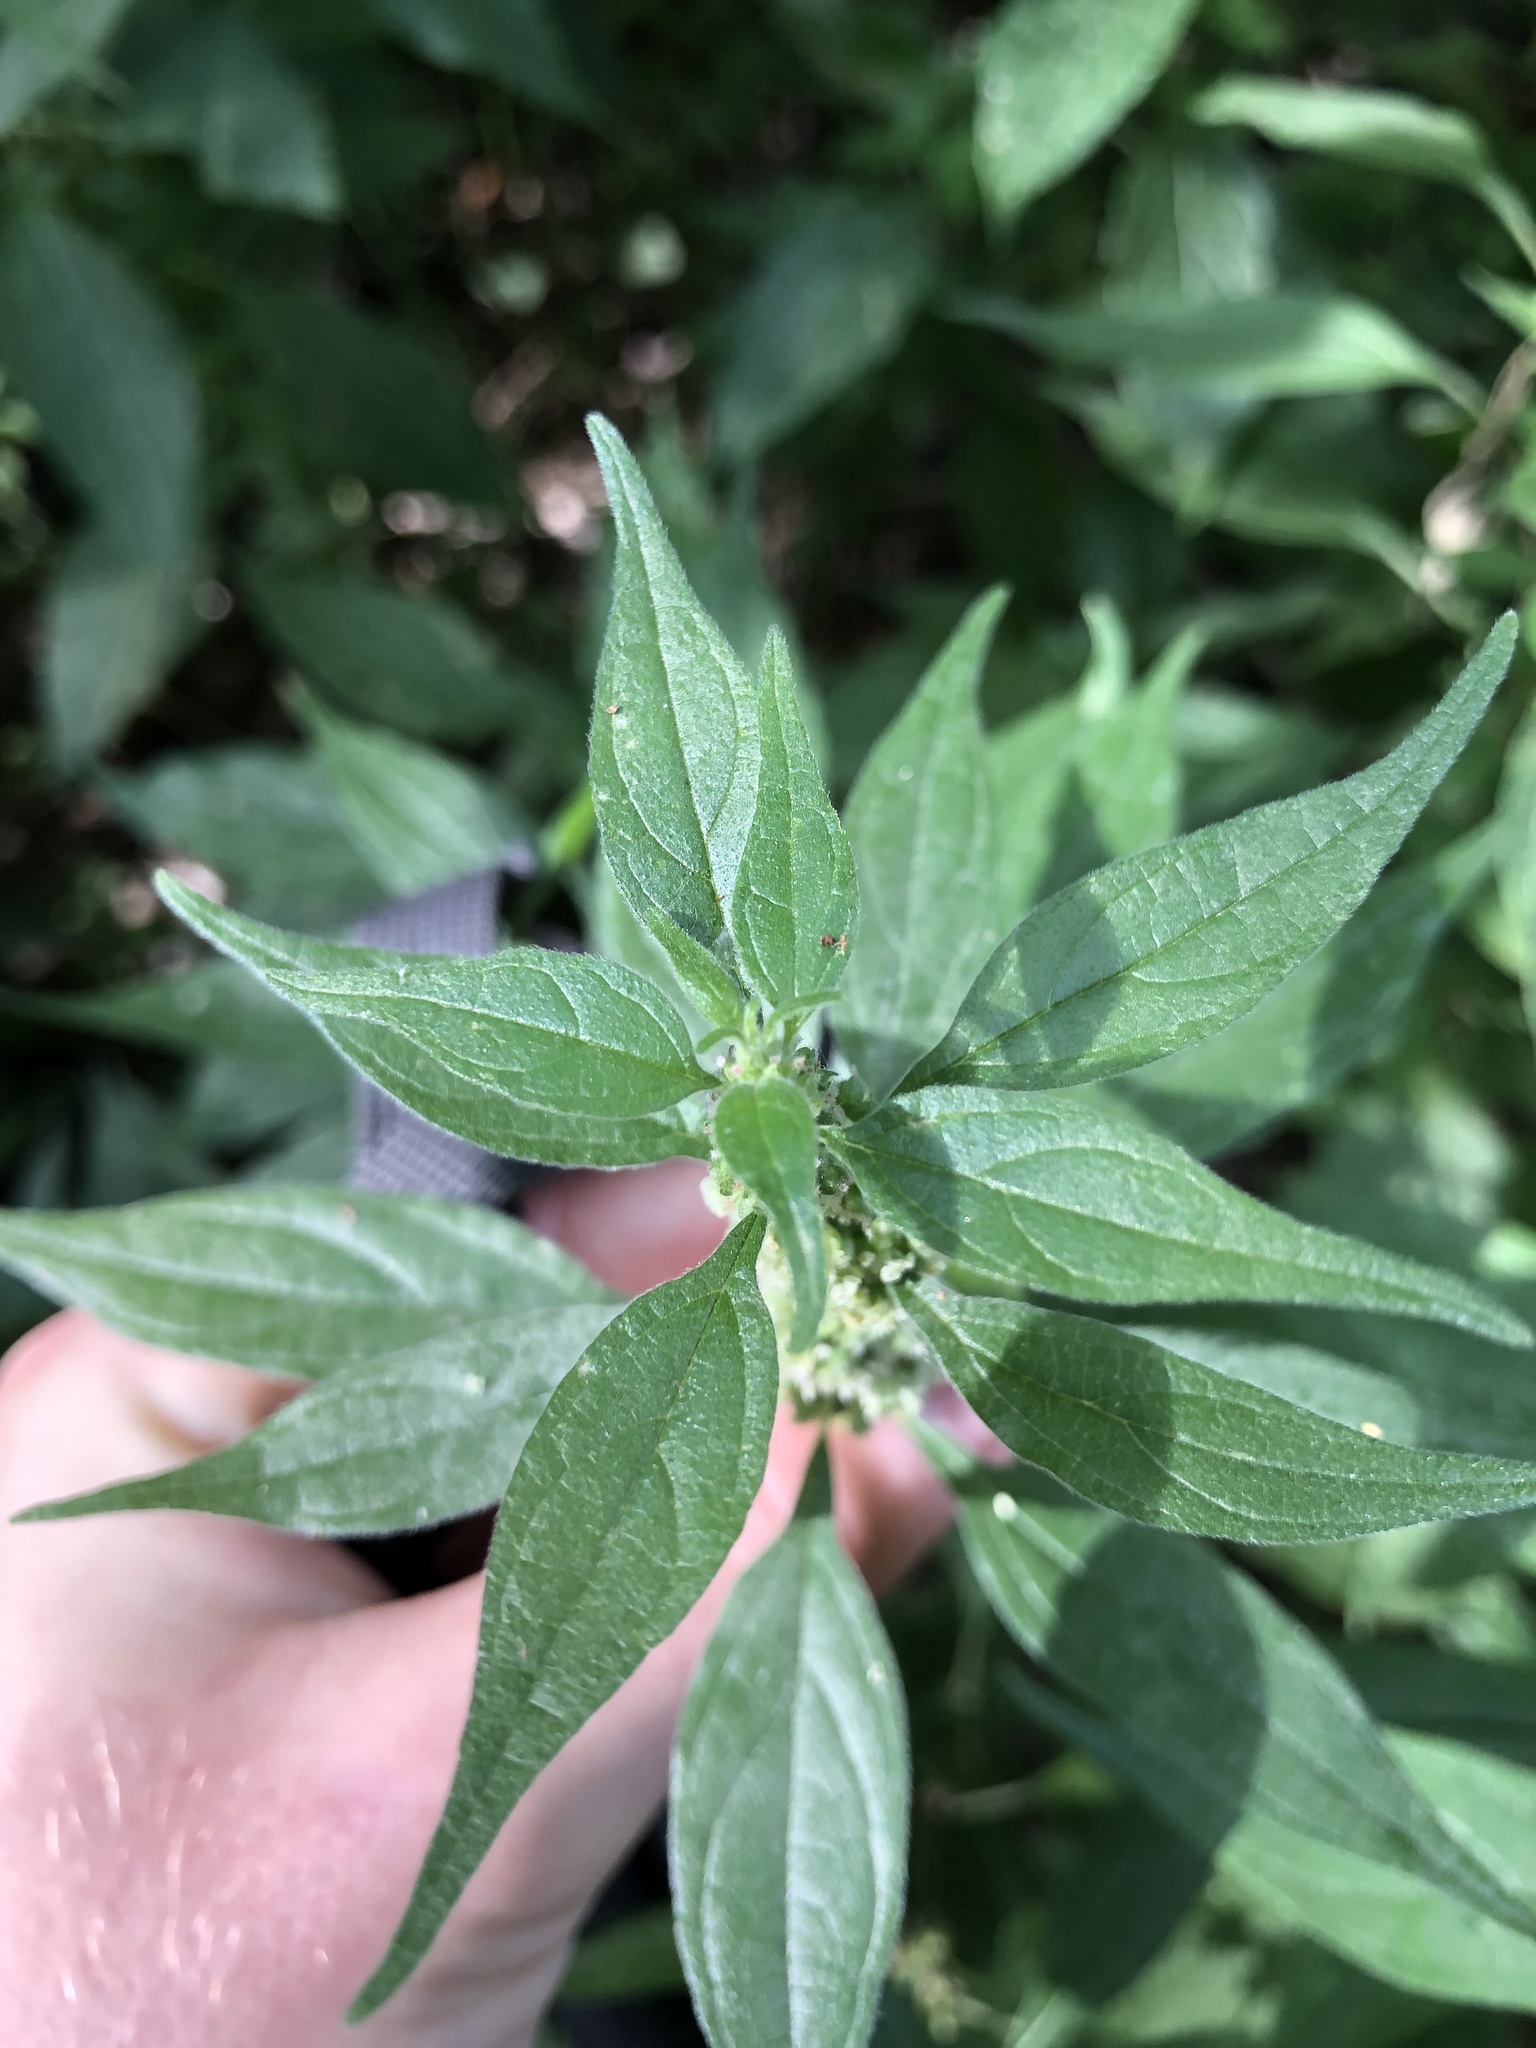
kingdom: Plantae
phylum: Tracheophyta
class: Magnoliopsida
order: Rosales
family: Urticaceae
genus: Parietaria
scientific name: Parietaria officinalis
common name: Eastern pellitory-of-the-wall
